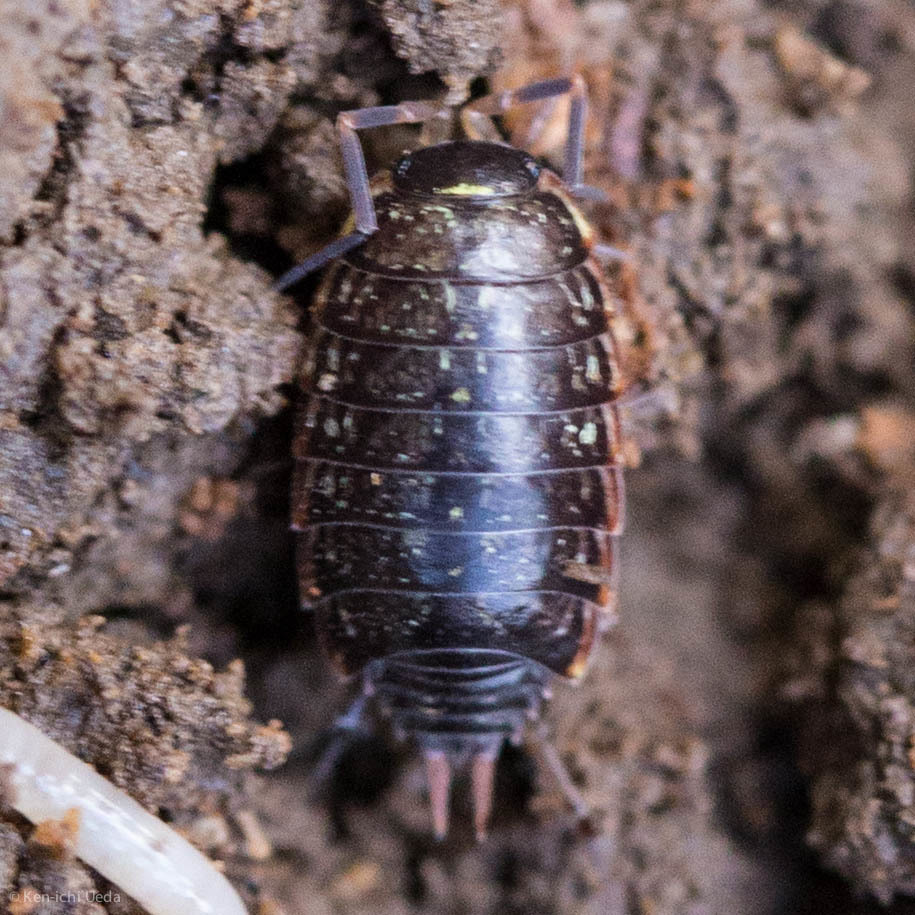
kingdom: Animalia
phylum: Arthropoda
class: Malacostraca
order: Isopoda
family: Philosciidae
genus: Philoscia
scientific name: Philoscia muscorum
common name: Common striped woodlouse
